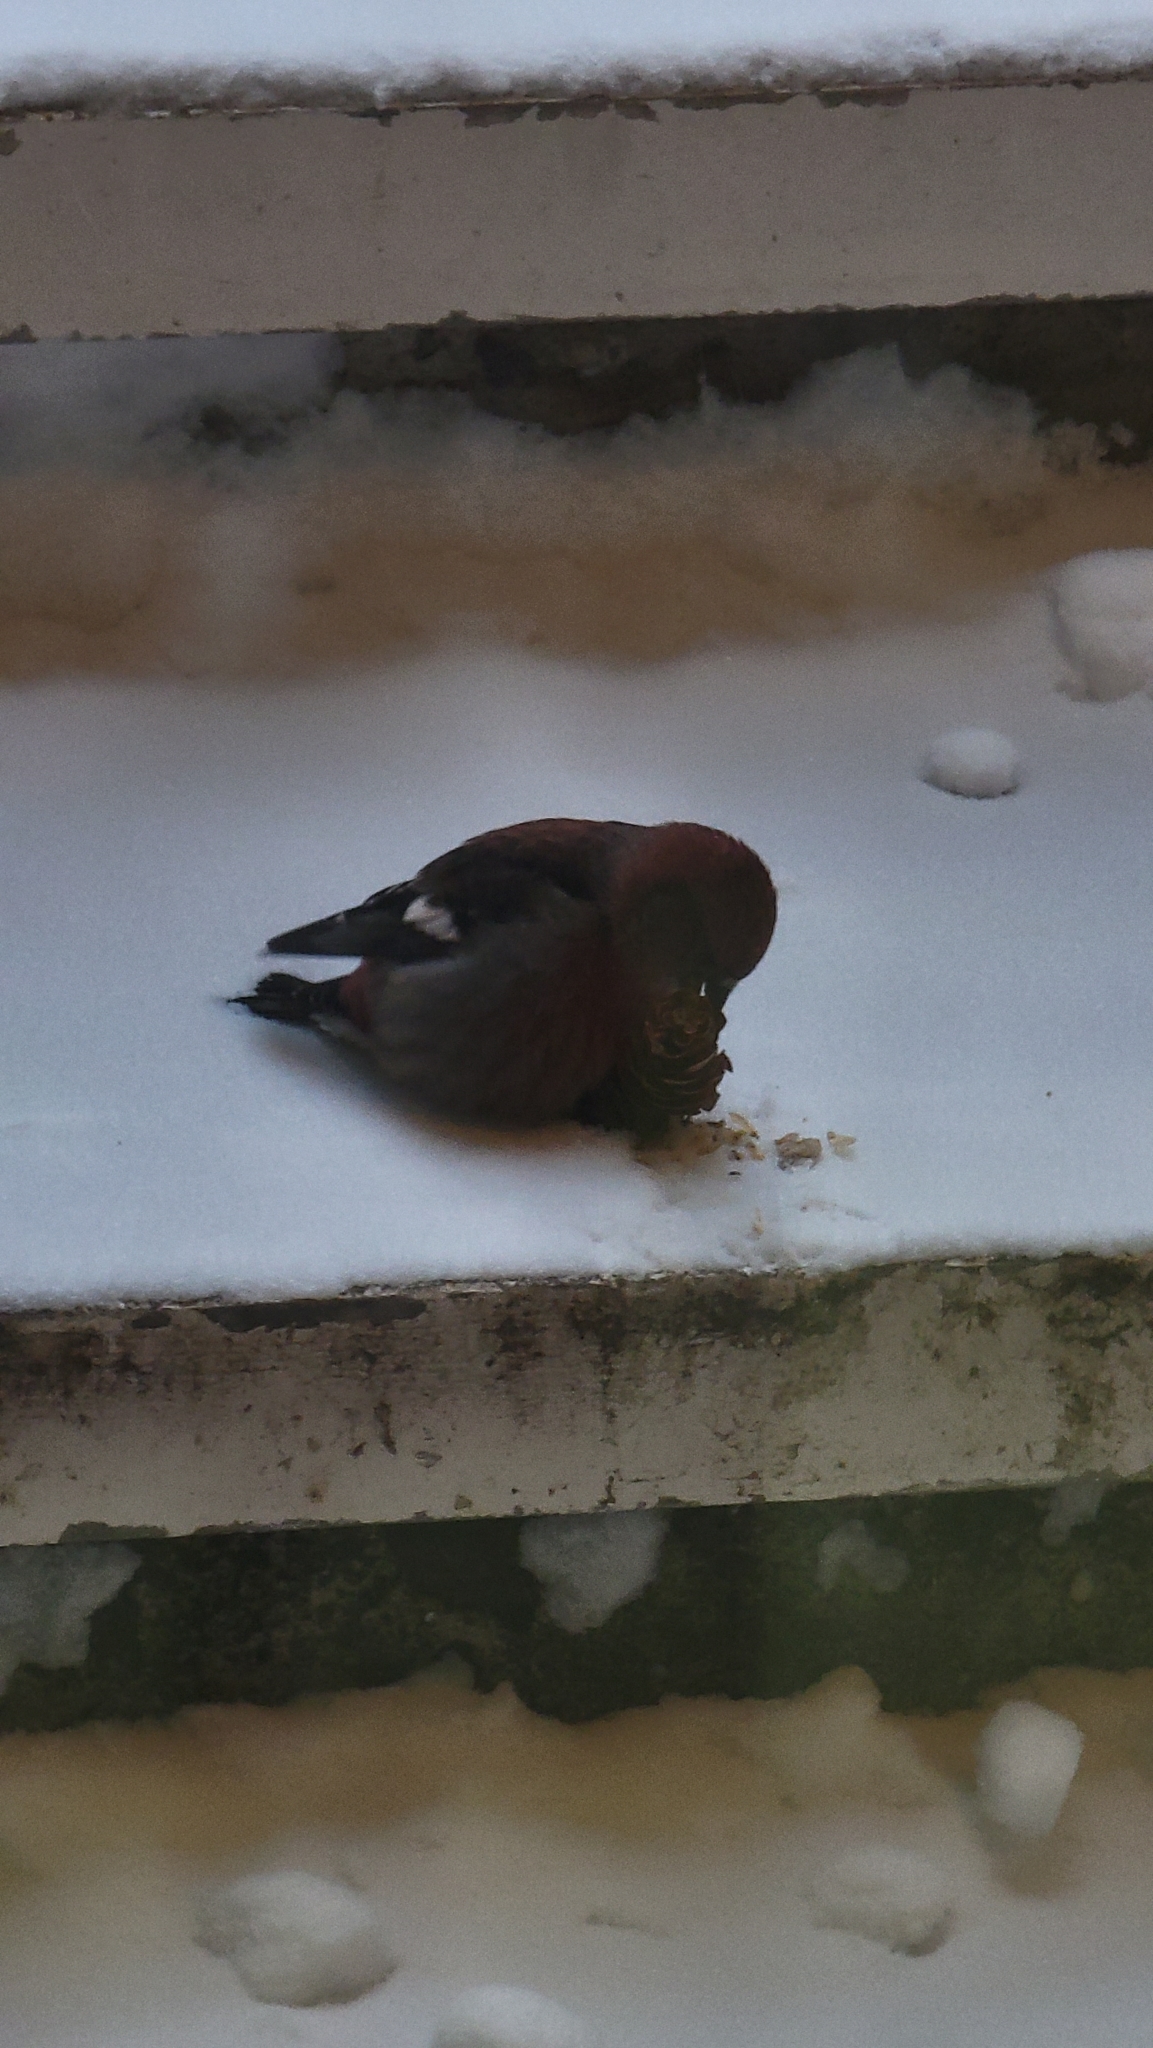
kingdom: Animalia
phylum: Chordata
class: Aves
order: Passeriformes
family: Fringillidae
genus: Loxia
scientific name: Loxia leucoptera
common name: Two-barred crossbill
